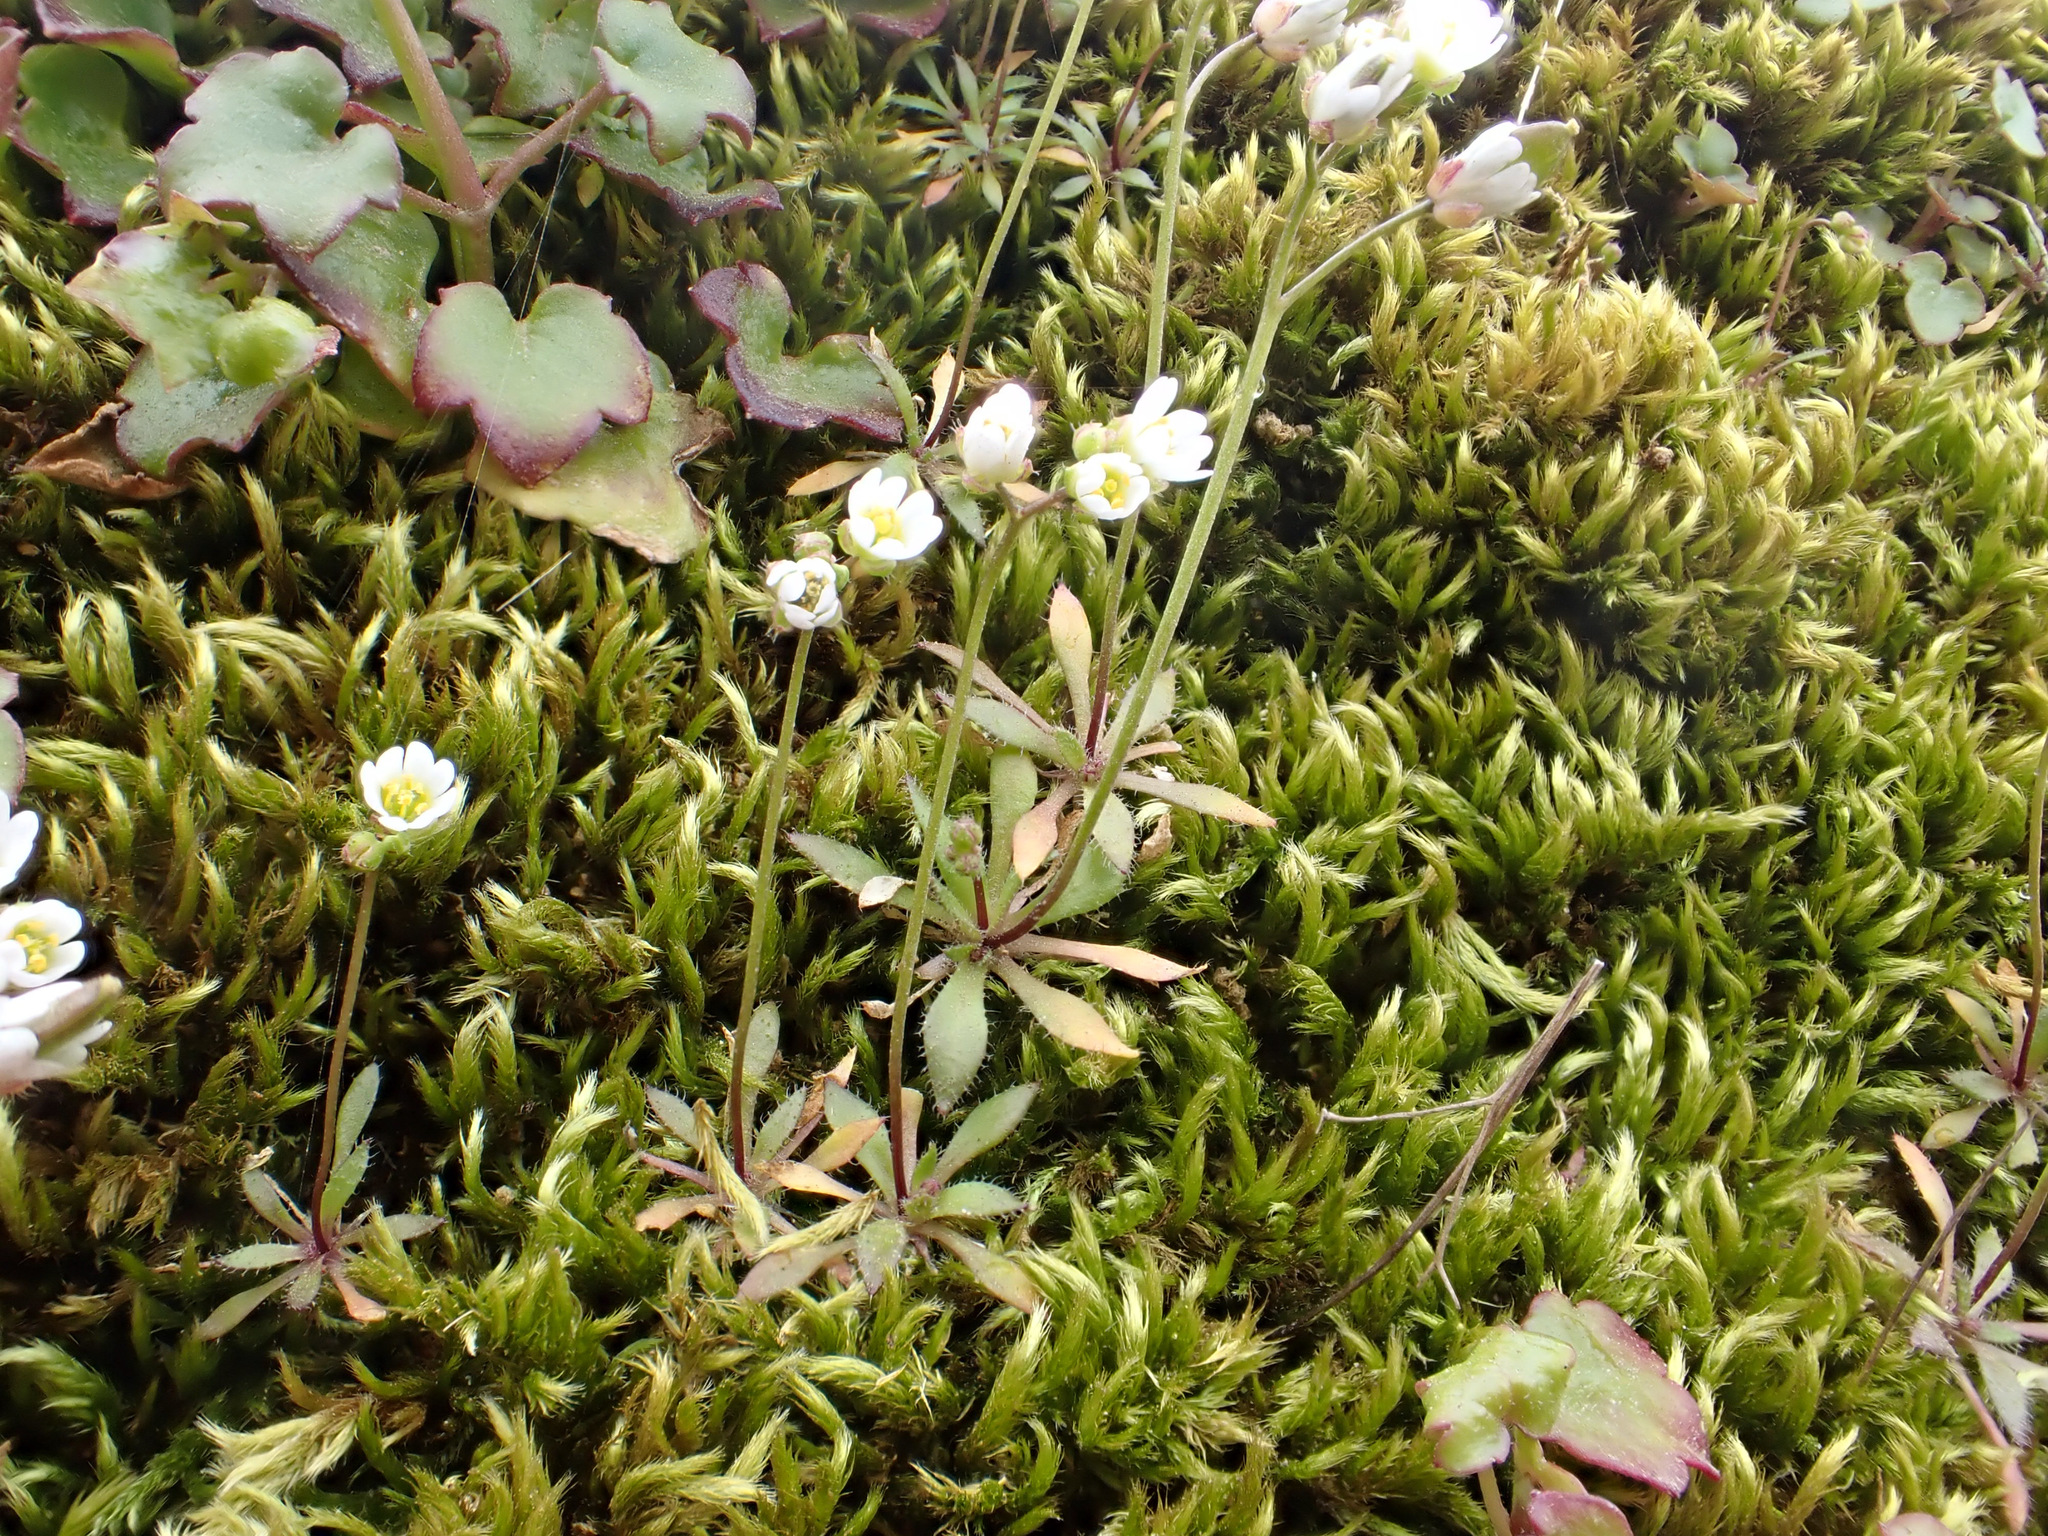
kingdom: Plantae
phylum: Tracheophyta
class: Magnoliopsida
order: Brassicales
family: Brassicaceae
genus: Draba
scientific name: Draba verna
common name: Spring draba
